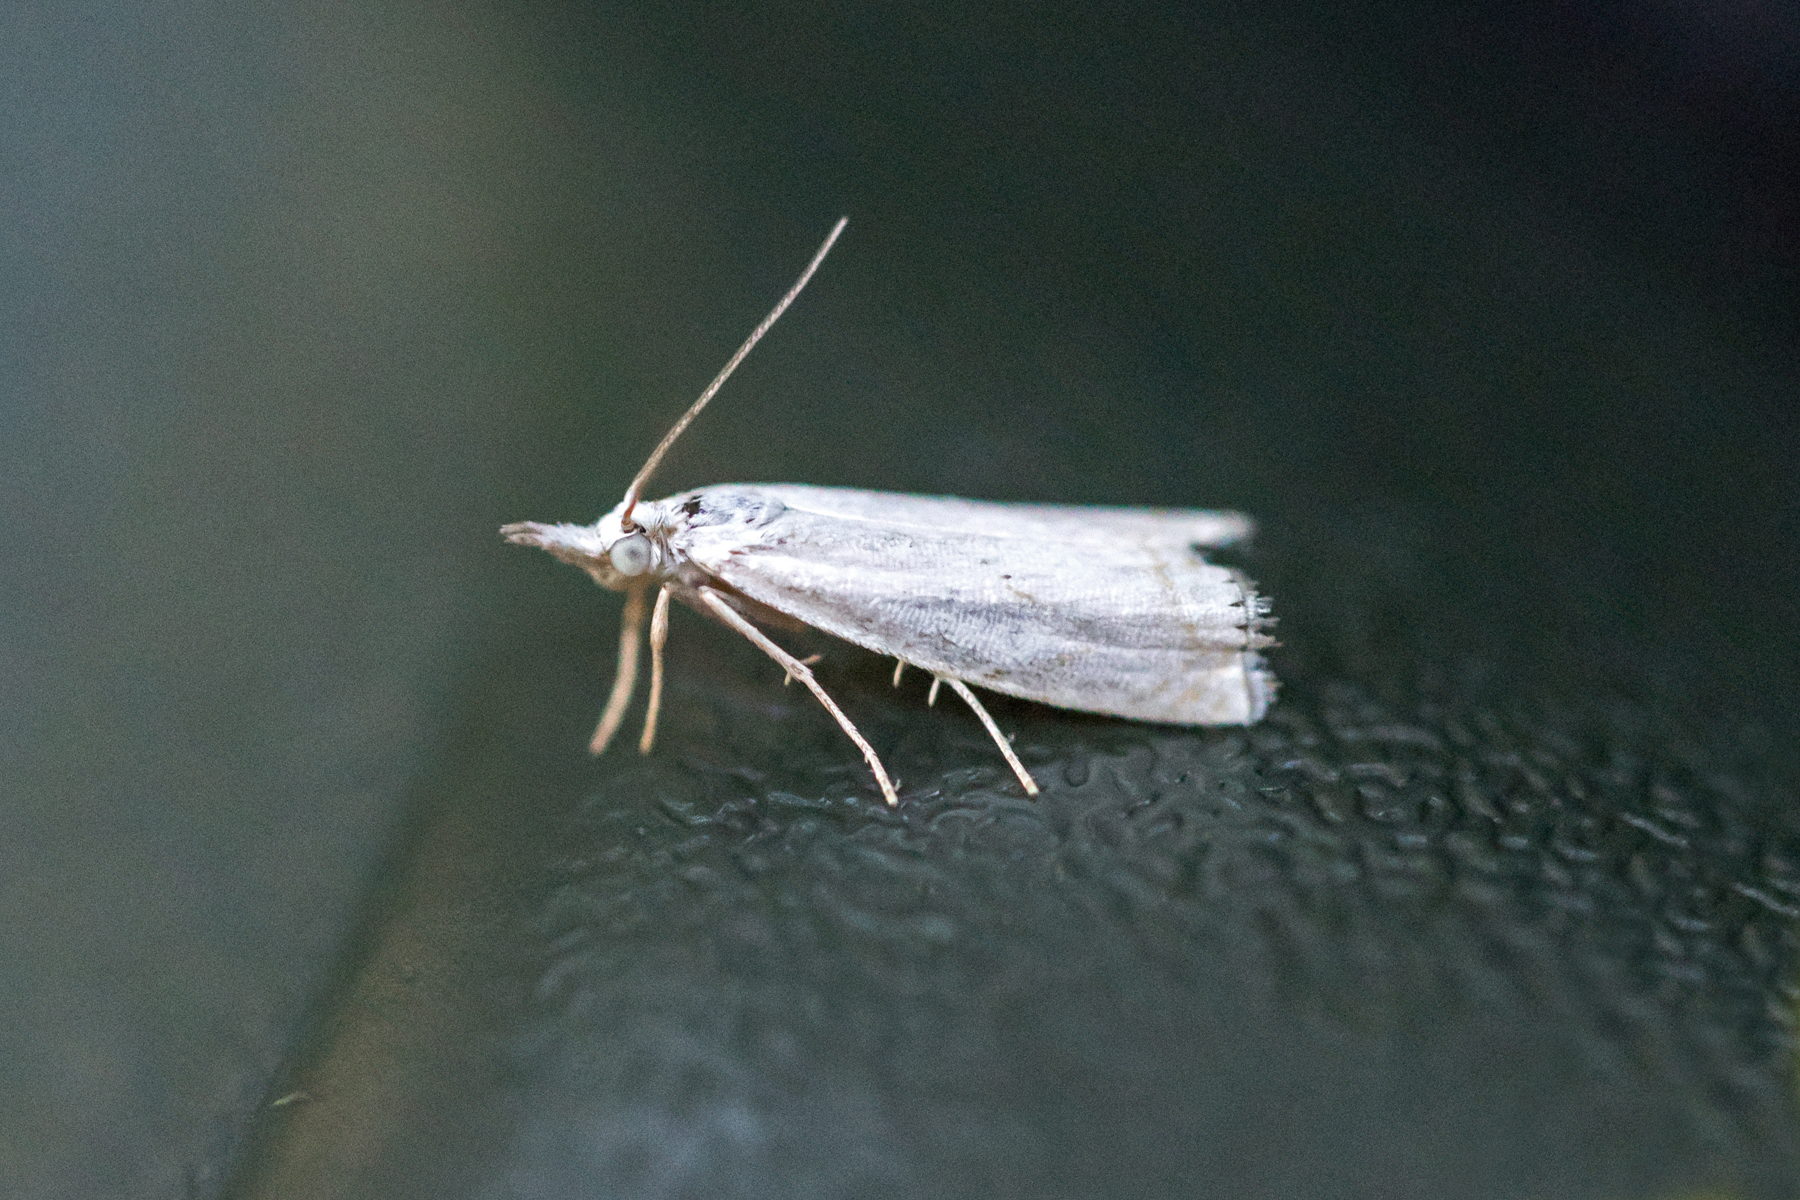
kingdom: Animalia
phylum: Arthropoda
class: Insecta
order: Lepidoptera
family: Crambidae
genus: Crambus
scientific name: Crambus albellus
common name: Small white grass-veneer
